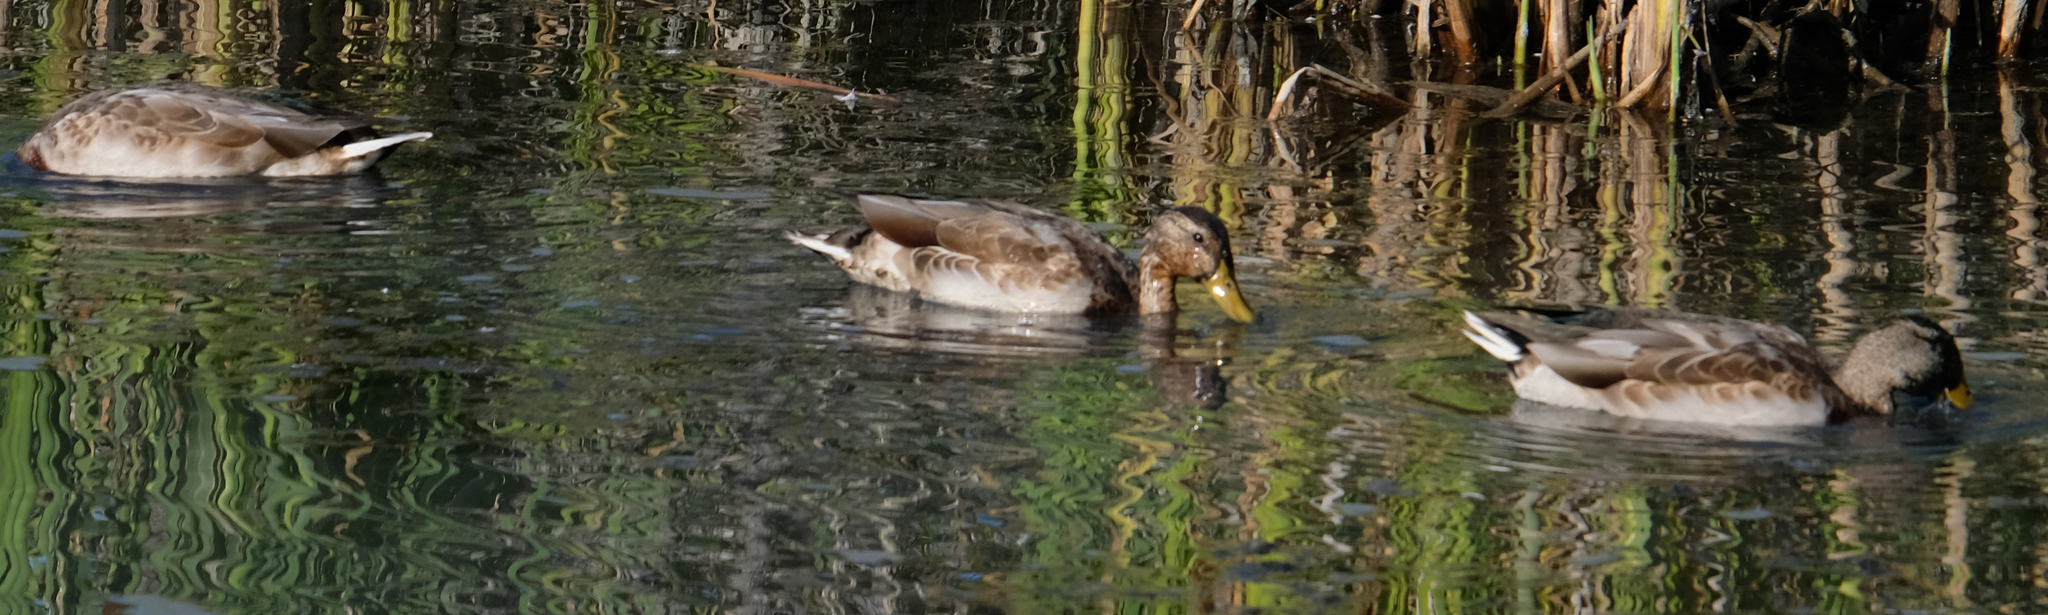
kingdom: Animalia
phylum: Chordata
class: Aves
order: Anseriformes
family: Anatidae
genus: Anas
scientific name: Anas platyrhynchos
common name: Mallard
